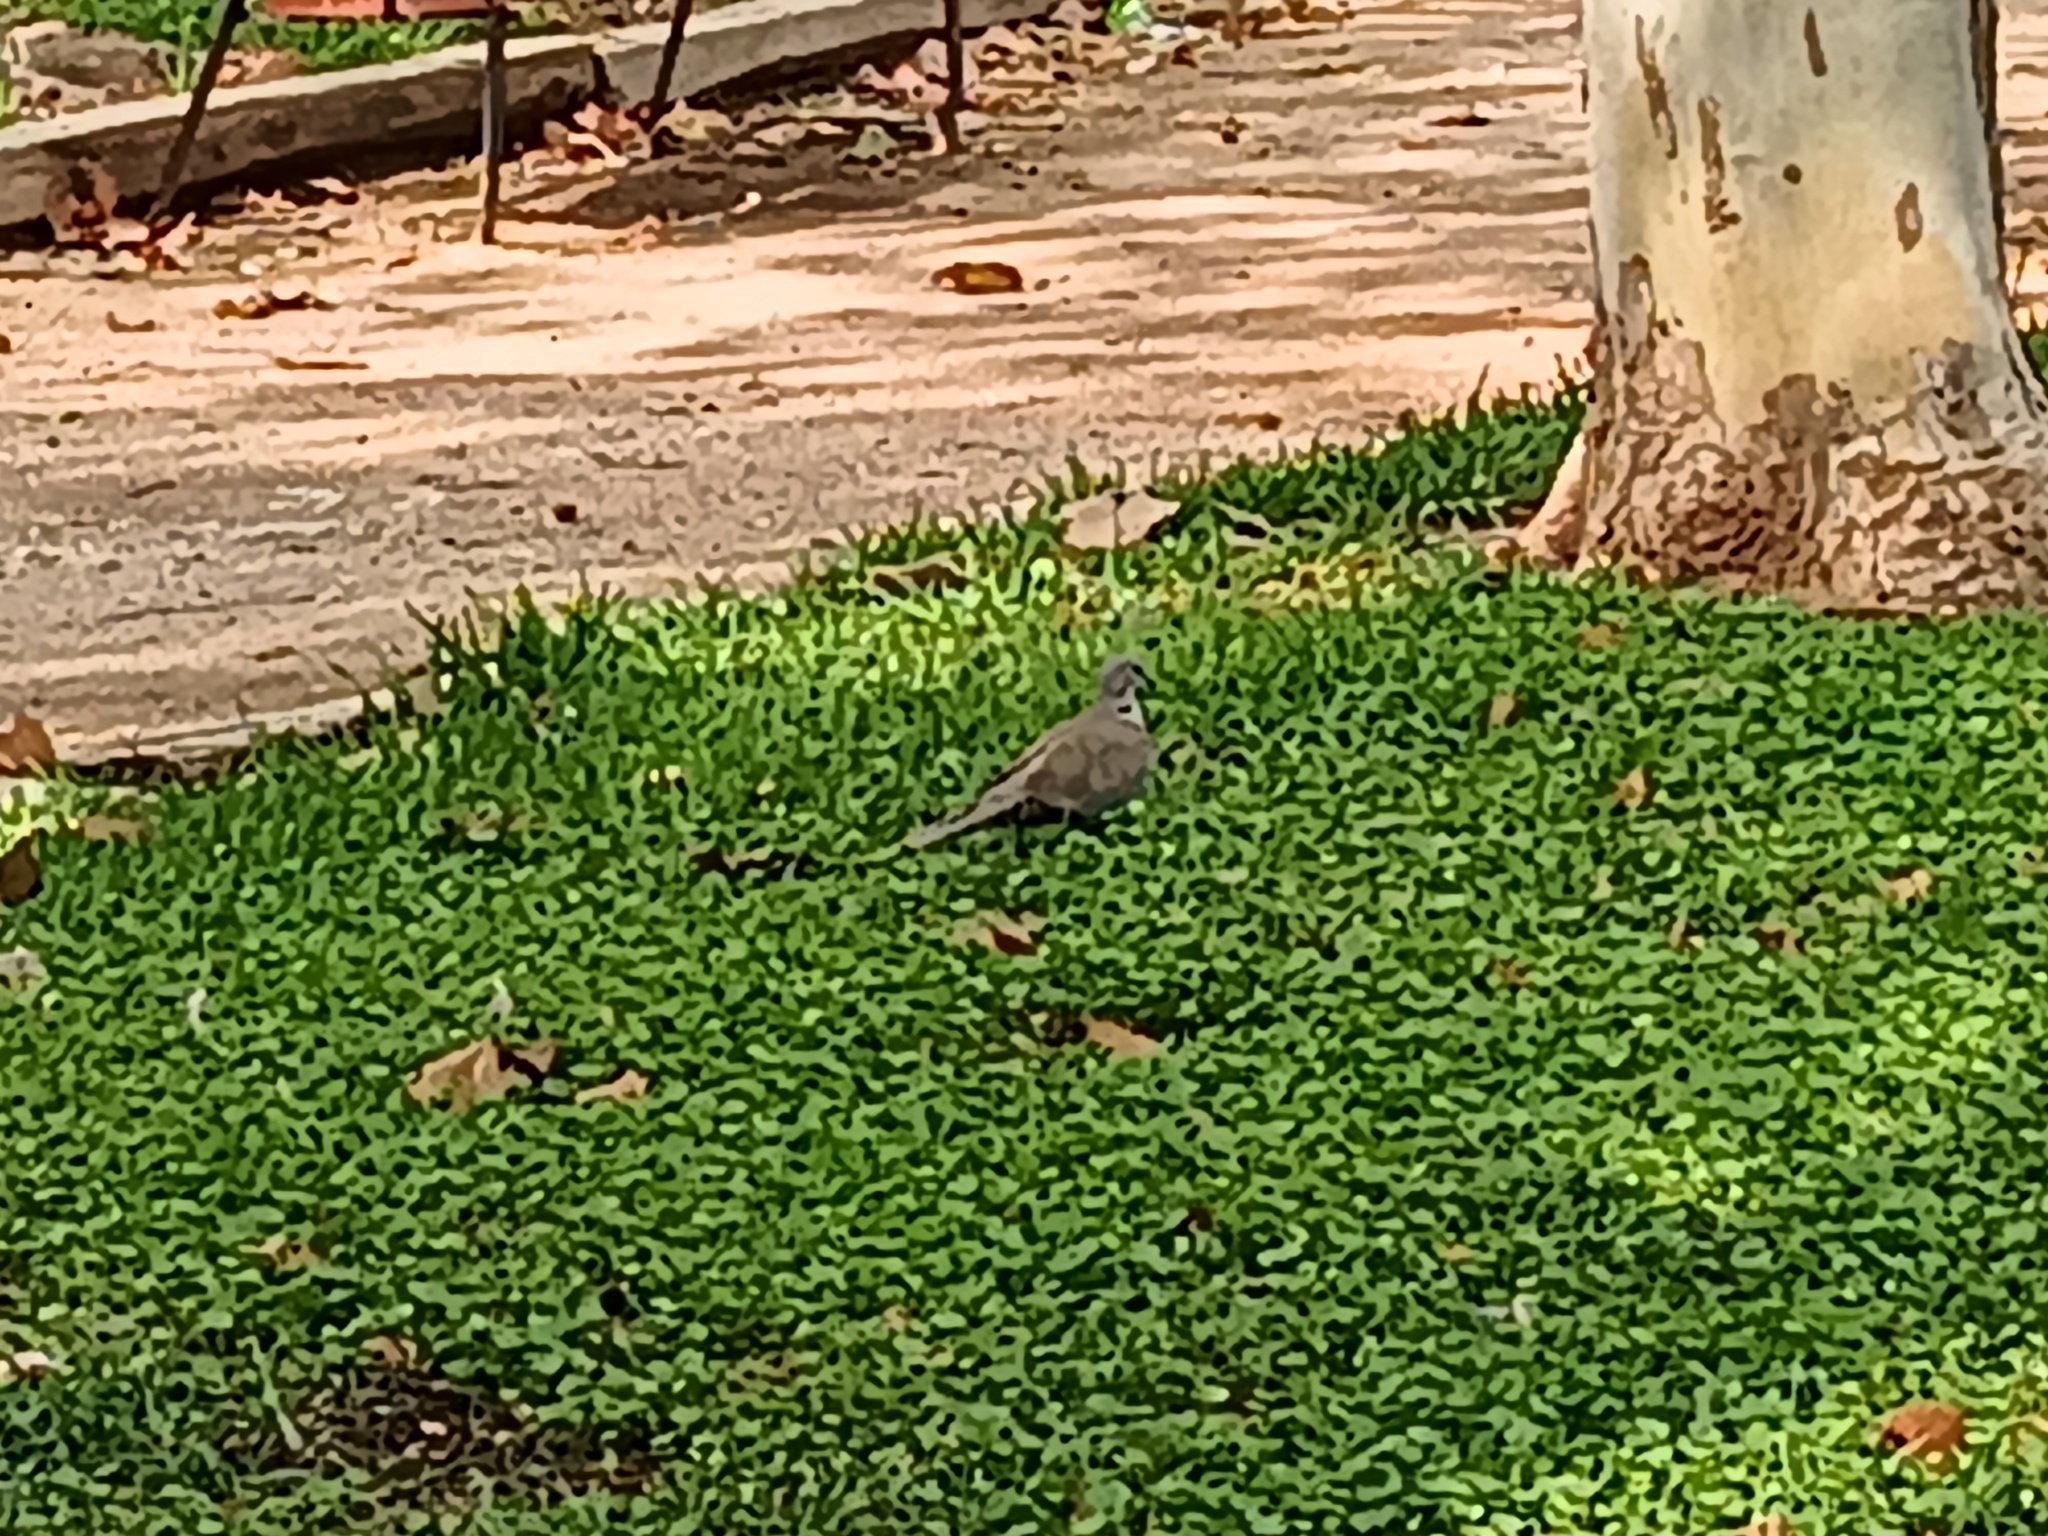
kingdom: Animalia
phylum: Chordata
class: Aves
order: Columbiformes
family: Columbidae
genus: Streptopelia
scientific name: Streptopelia decaocto
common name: Eurasian collared dove
